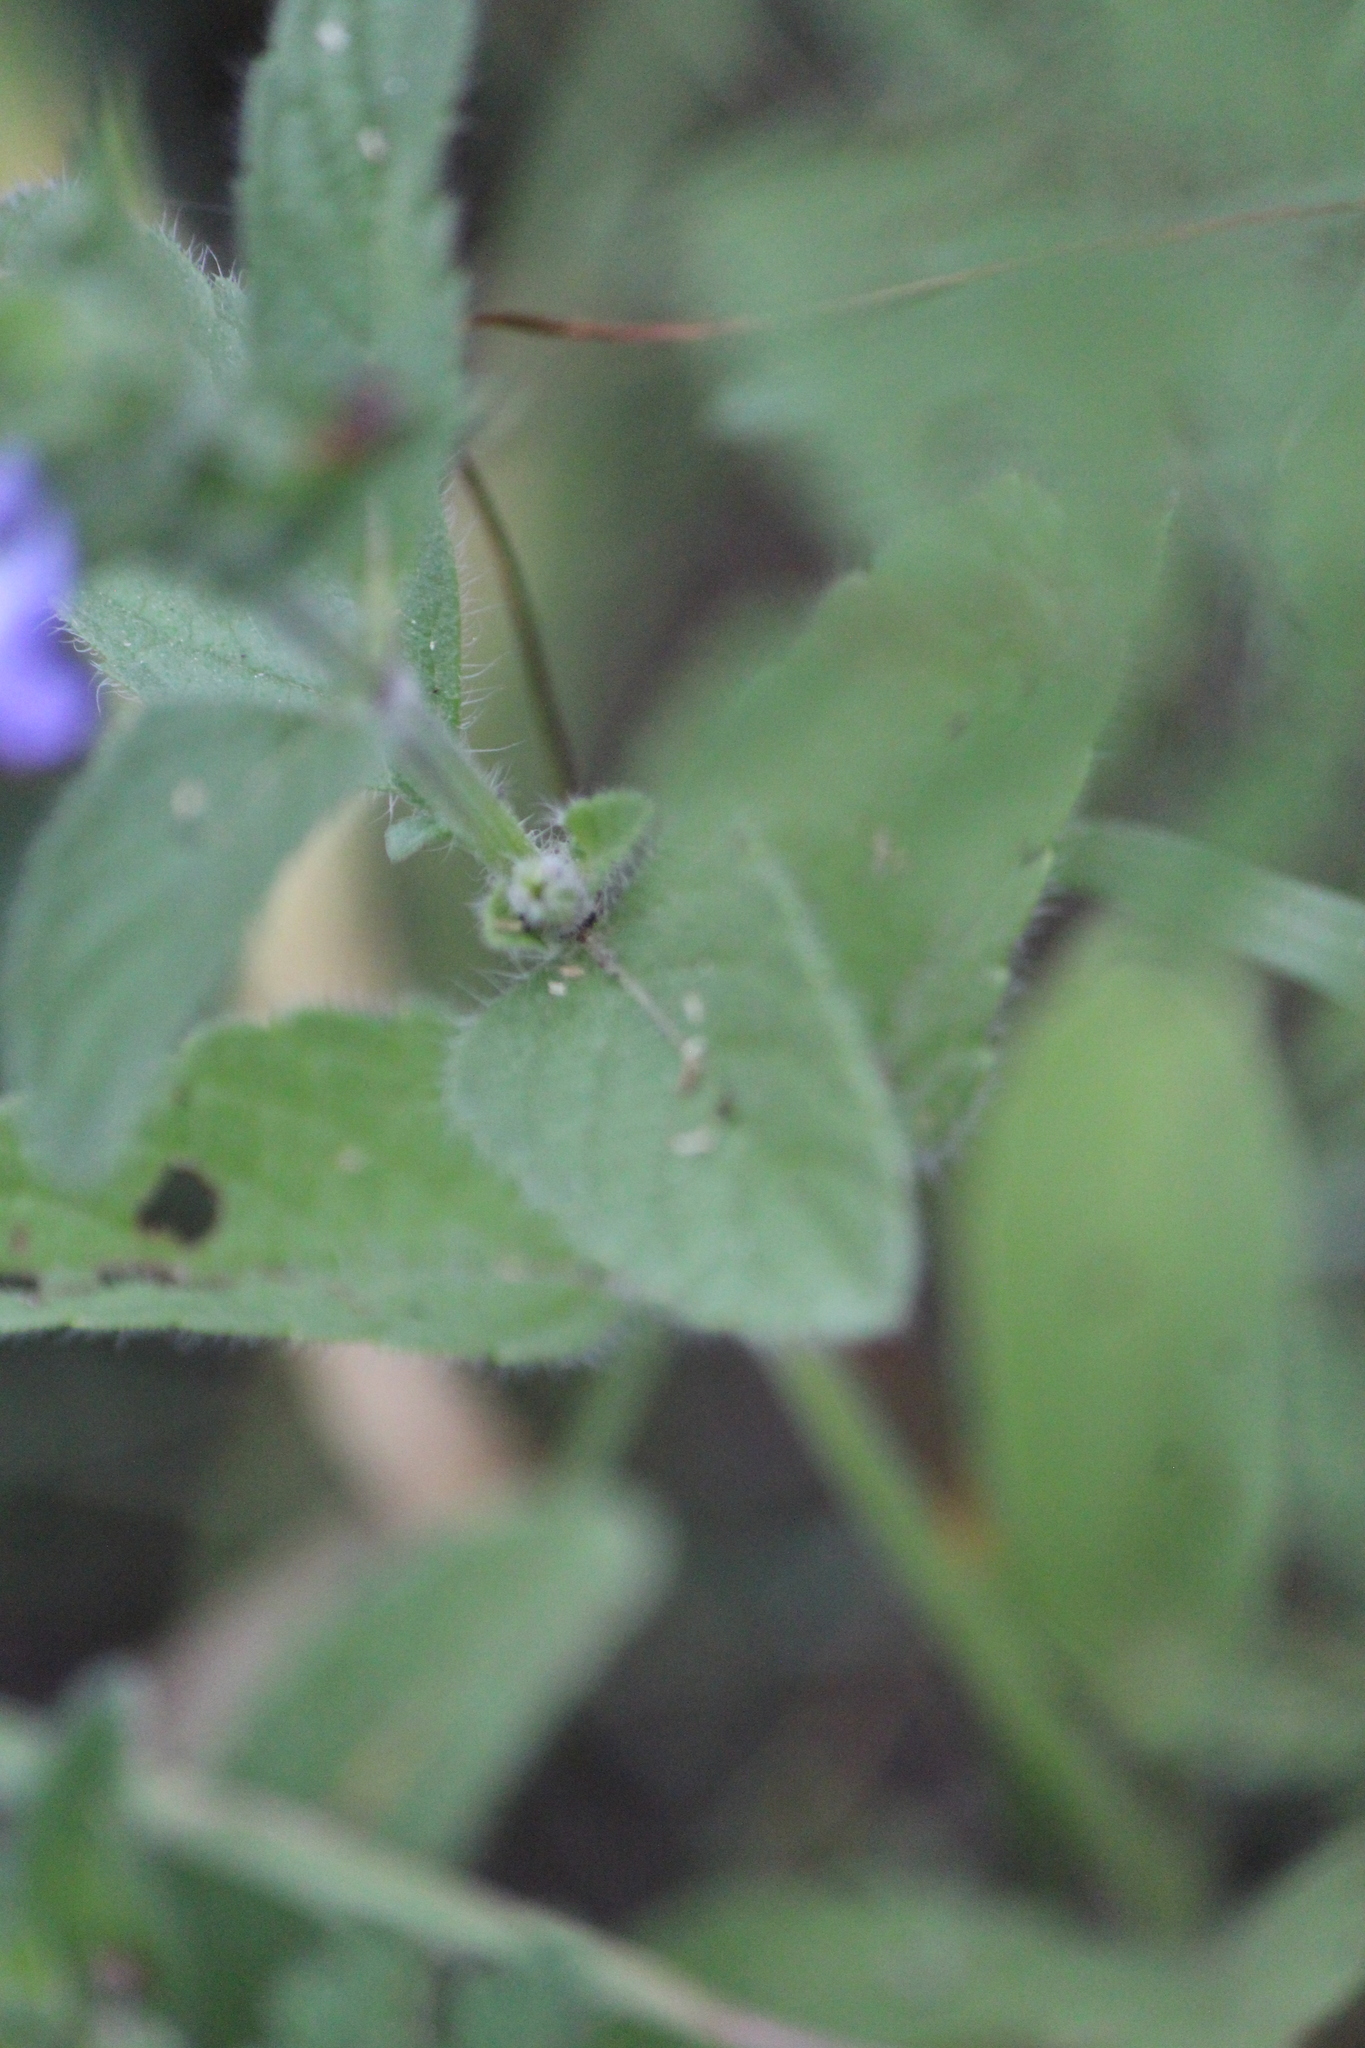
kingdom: Plantae
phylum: Tracheophyta
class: Magnoliopsida
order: Lamiales
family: Lamiaceae
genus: Salvia
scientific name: Salvia hirsuta
